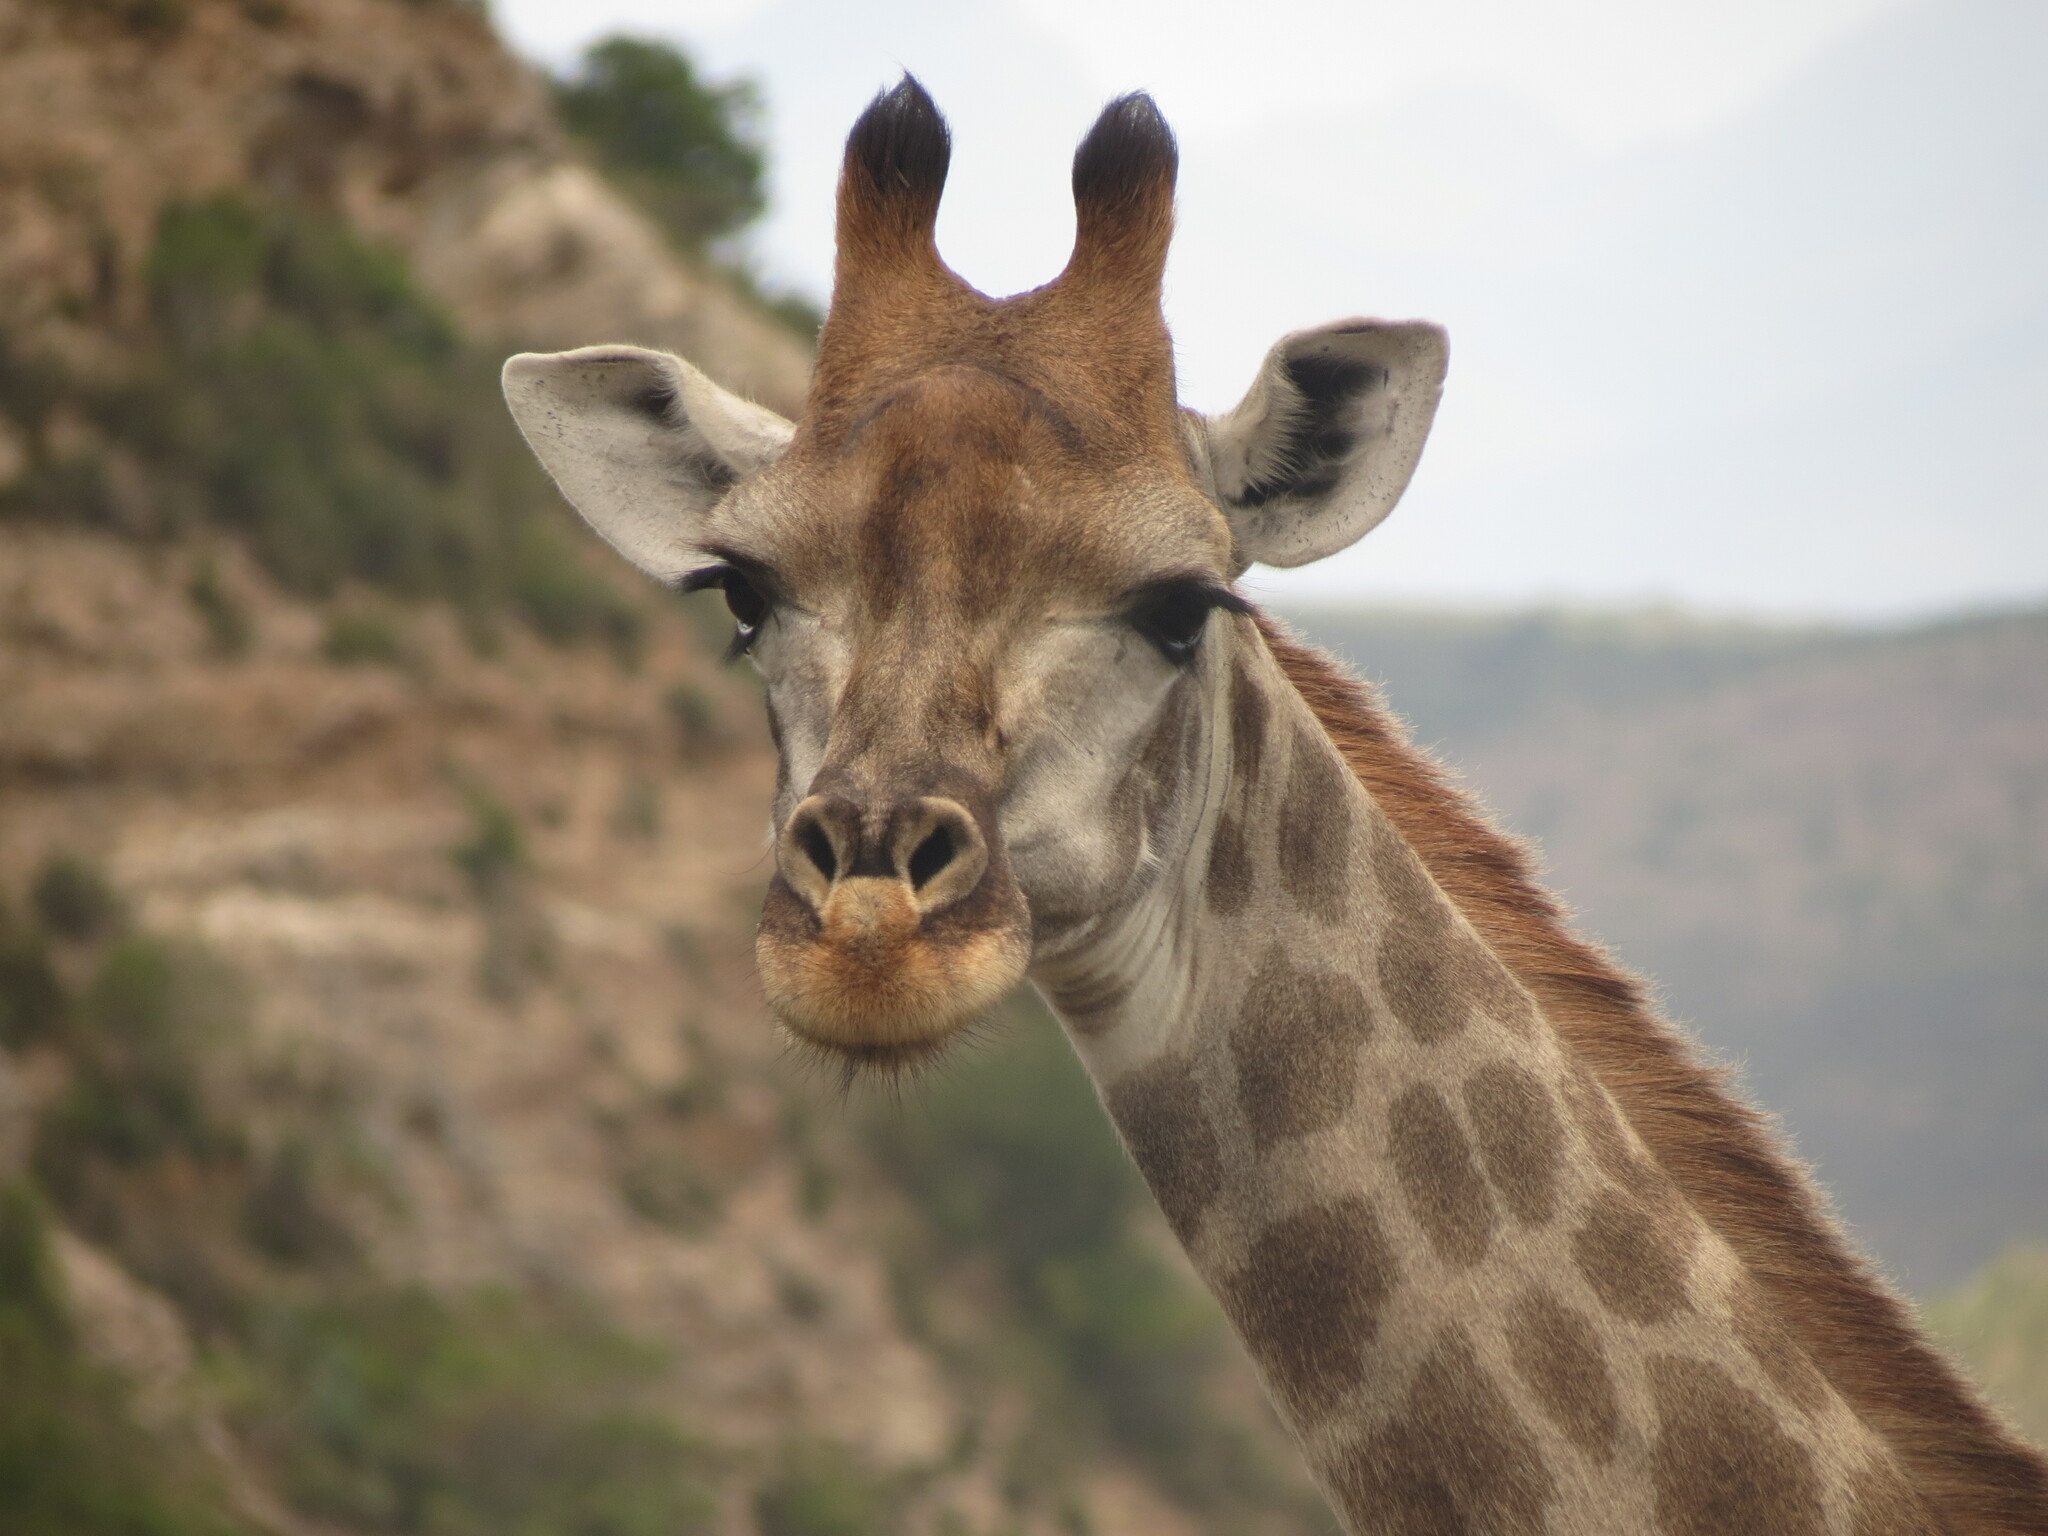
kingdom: Animalia
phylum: Chordata
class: Mammalia
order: Artiodactyla
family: Giraffidae
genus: Giraffa
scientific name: Giraffa giraffa
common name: Southern giraffe
